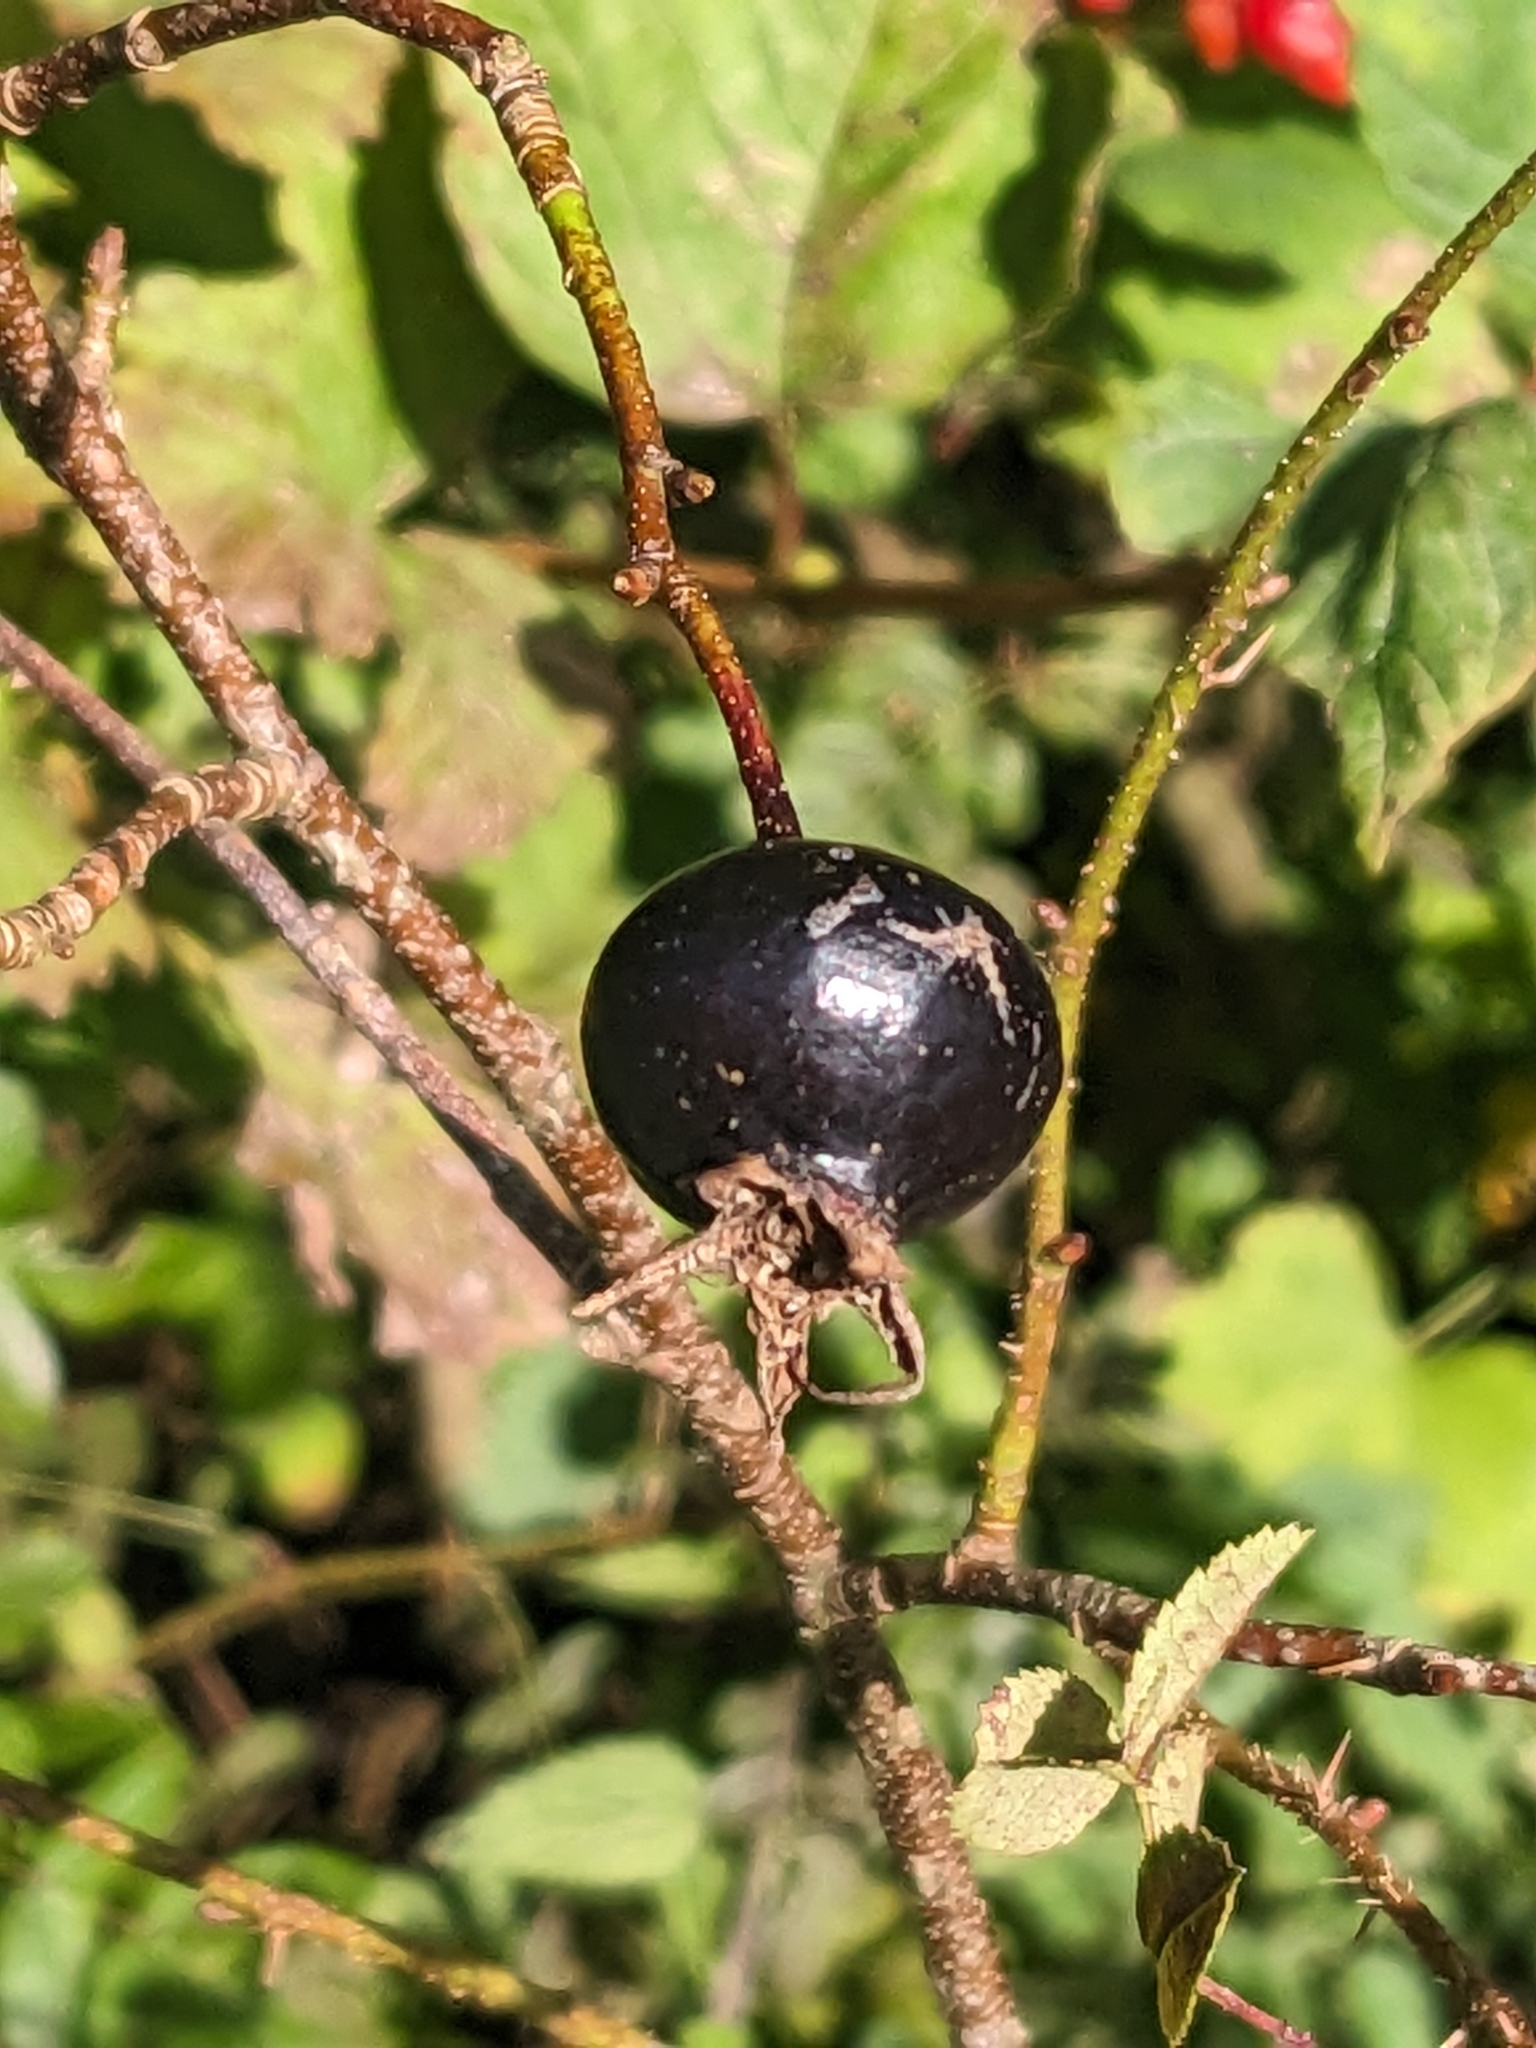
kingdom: Plantae
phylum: Tracheophyta
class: Magnoliopsida
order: Rosales
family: Rosaceae
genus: Rosa
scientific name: Rosa spinosissima
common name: Burnet rose
